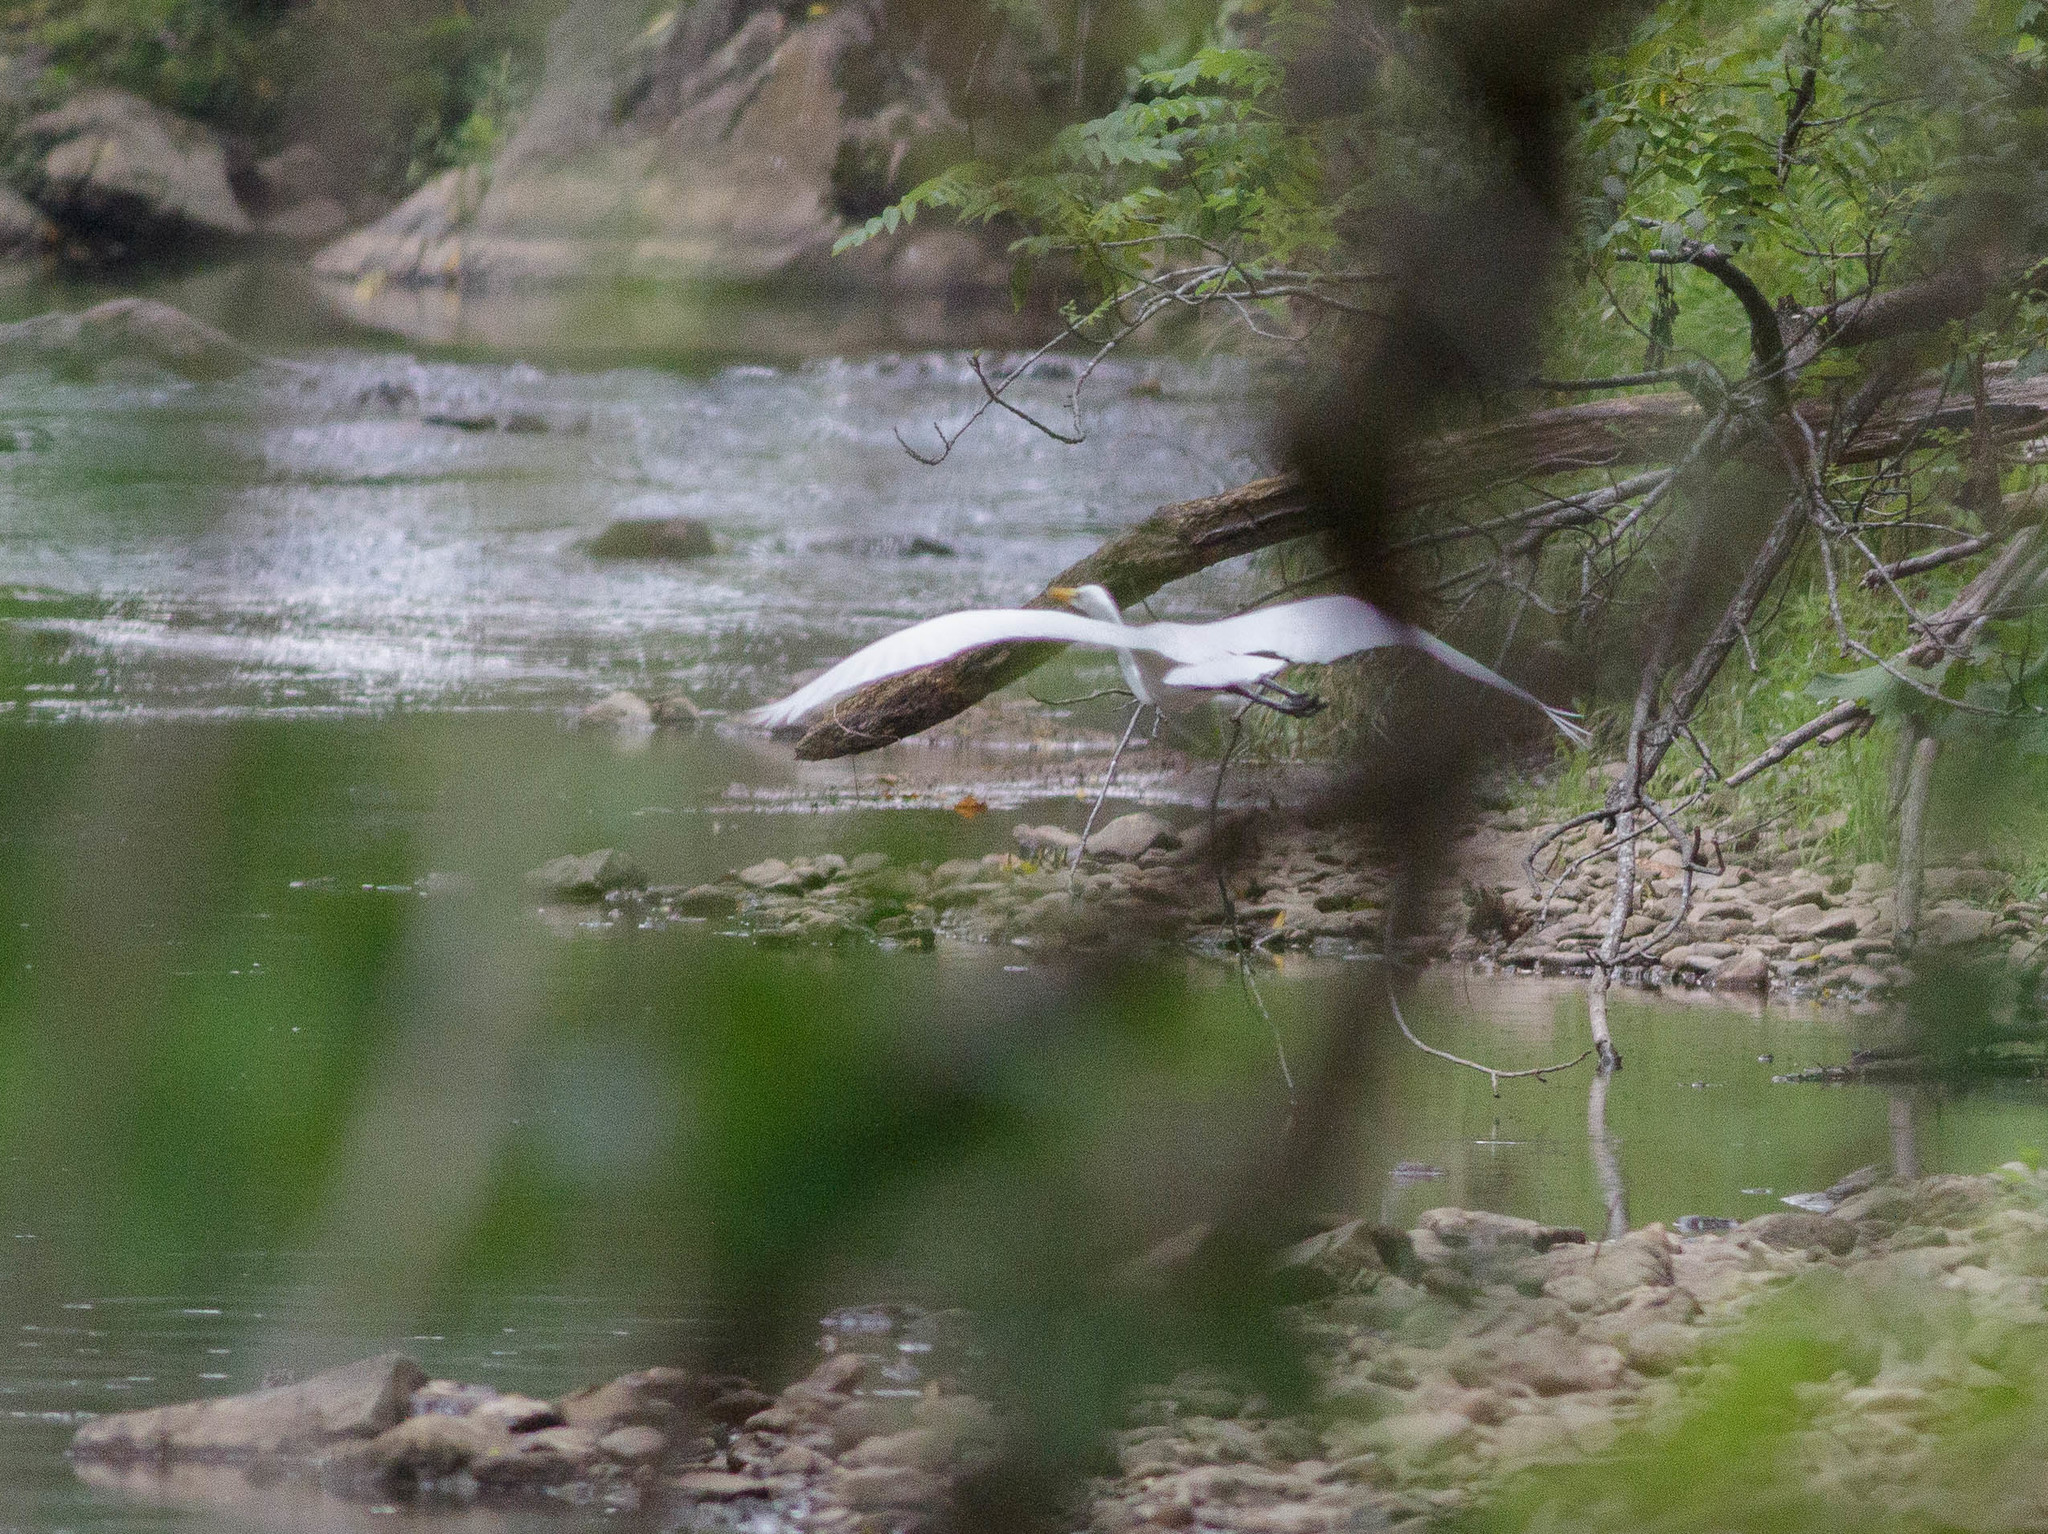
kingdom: Animalia
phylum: Chordata
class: Aves
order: Pelecaniformes
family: Ardeidae
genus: Ardea
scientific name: Ardea alba
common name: Great egret
